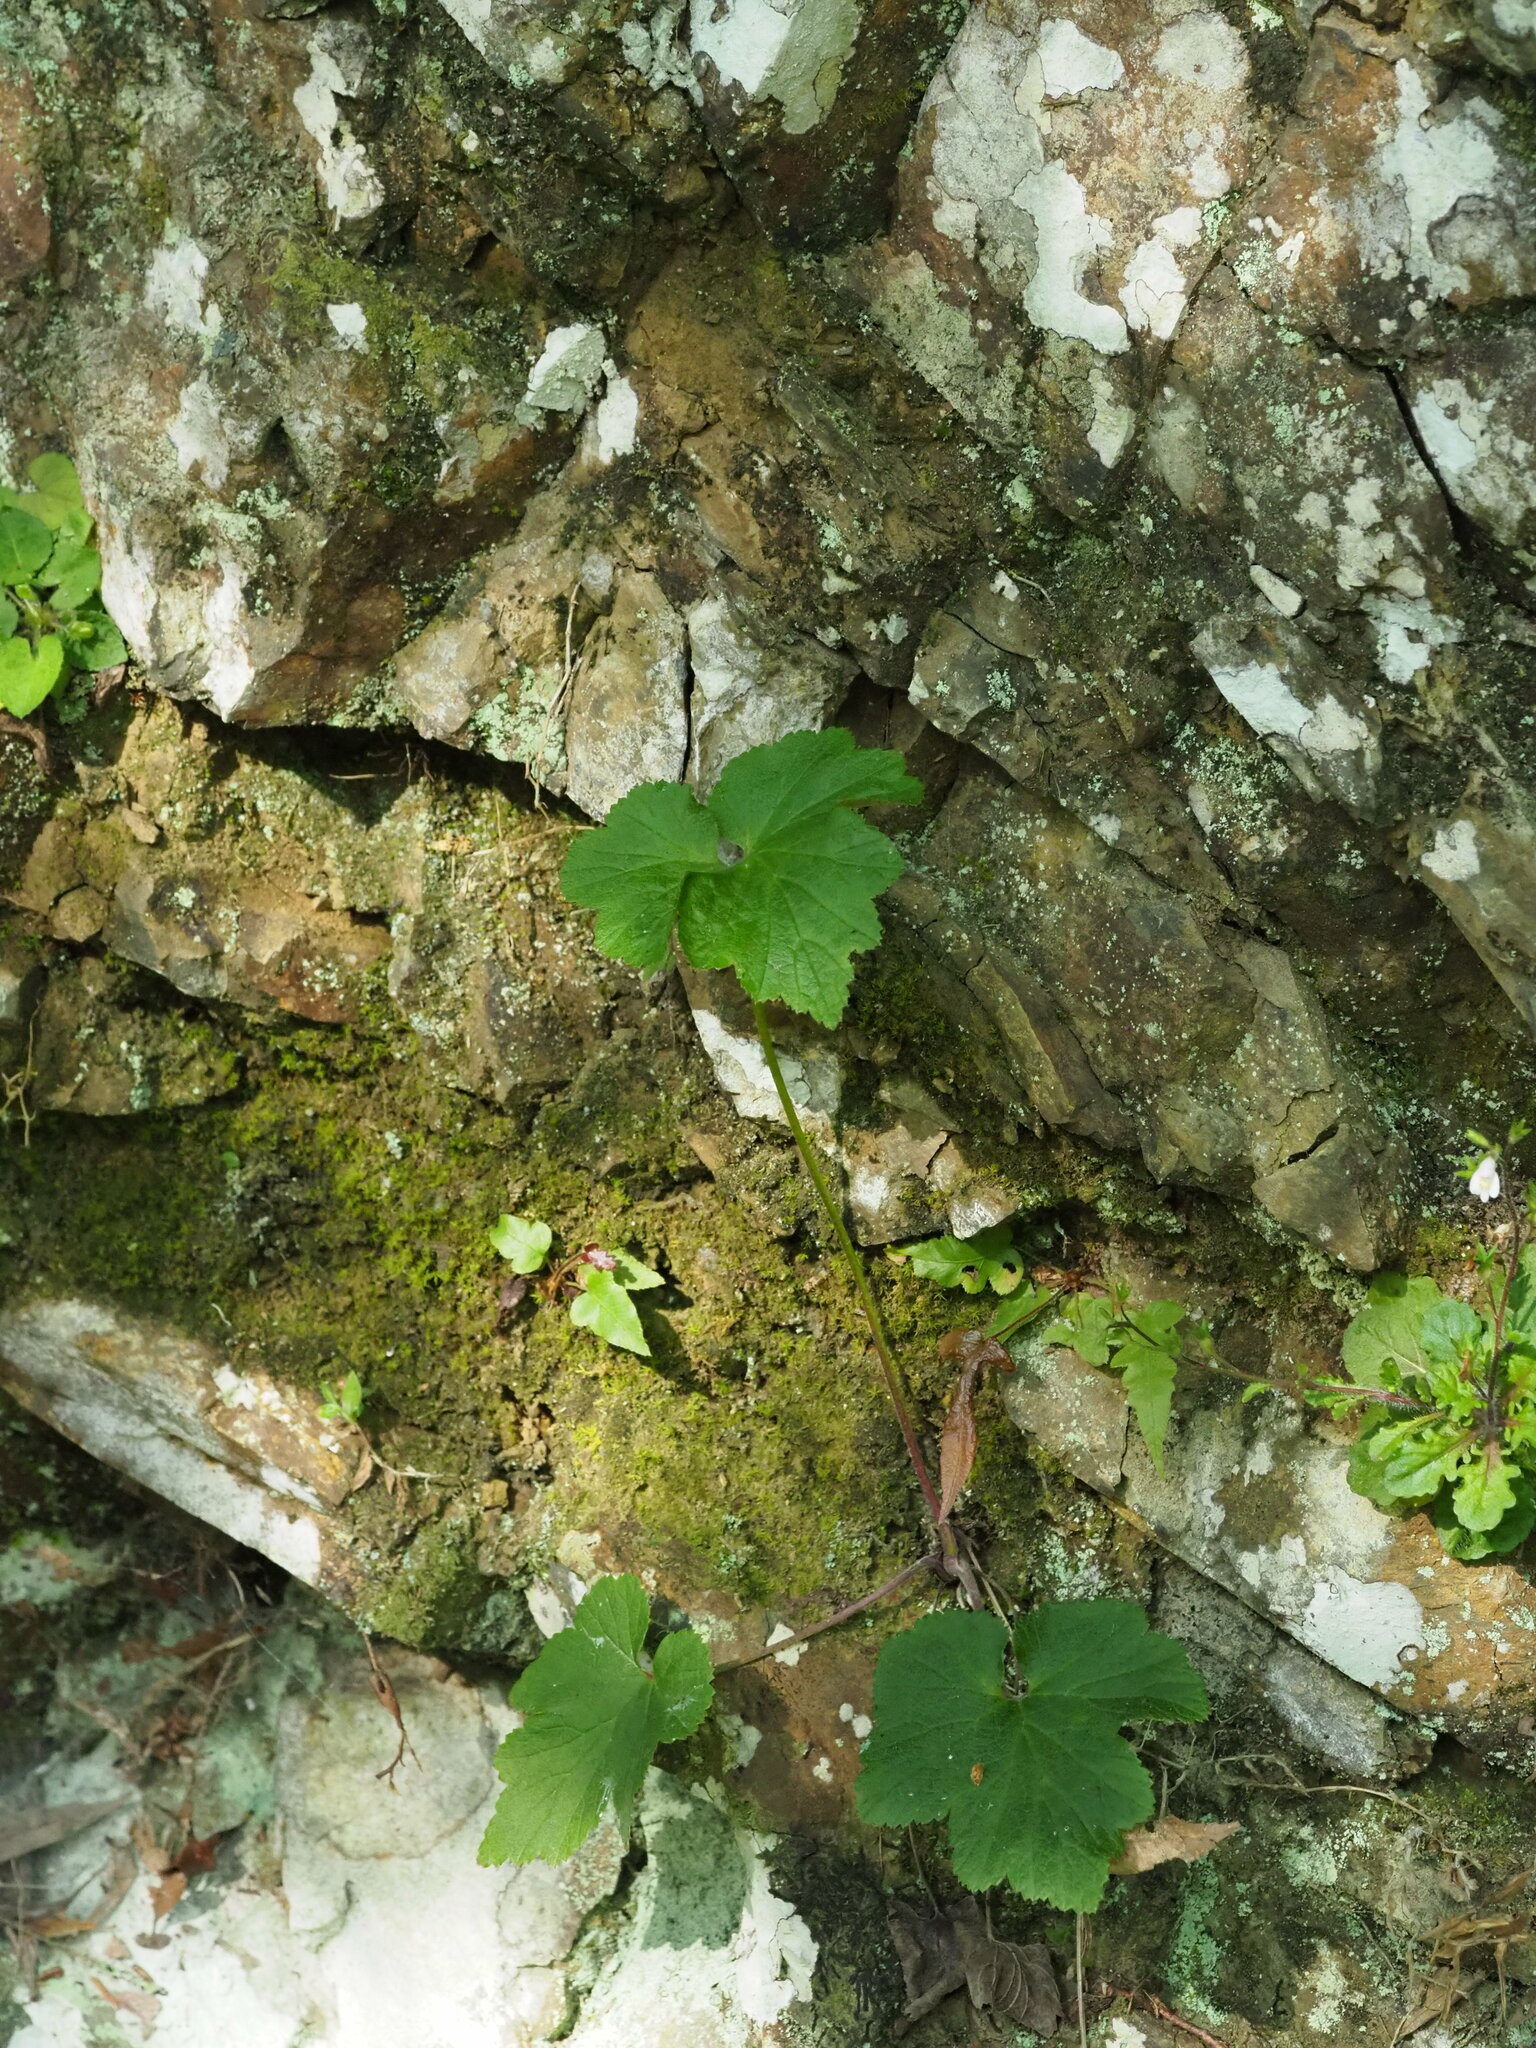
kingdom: Plantae
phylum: Tracheophyta
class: Magnoliopsida
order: Ranunculales
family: Ranunculaceae
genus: Eriocapitella
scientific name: Eriocapitella vitifolia
